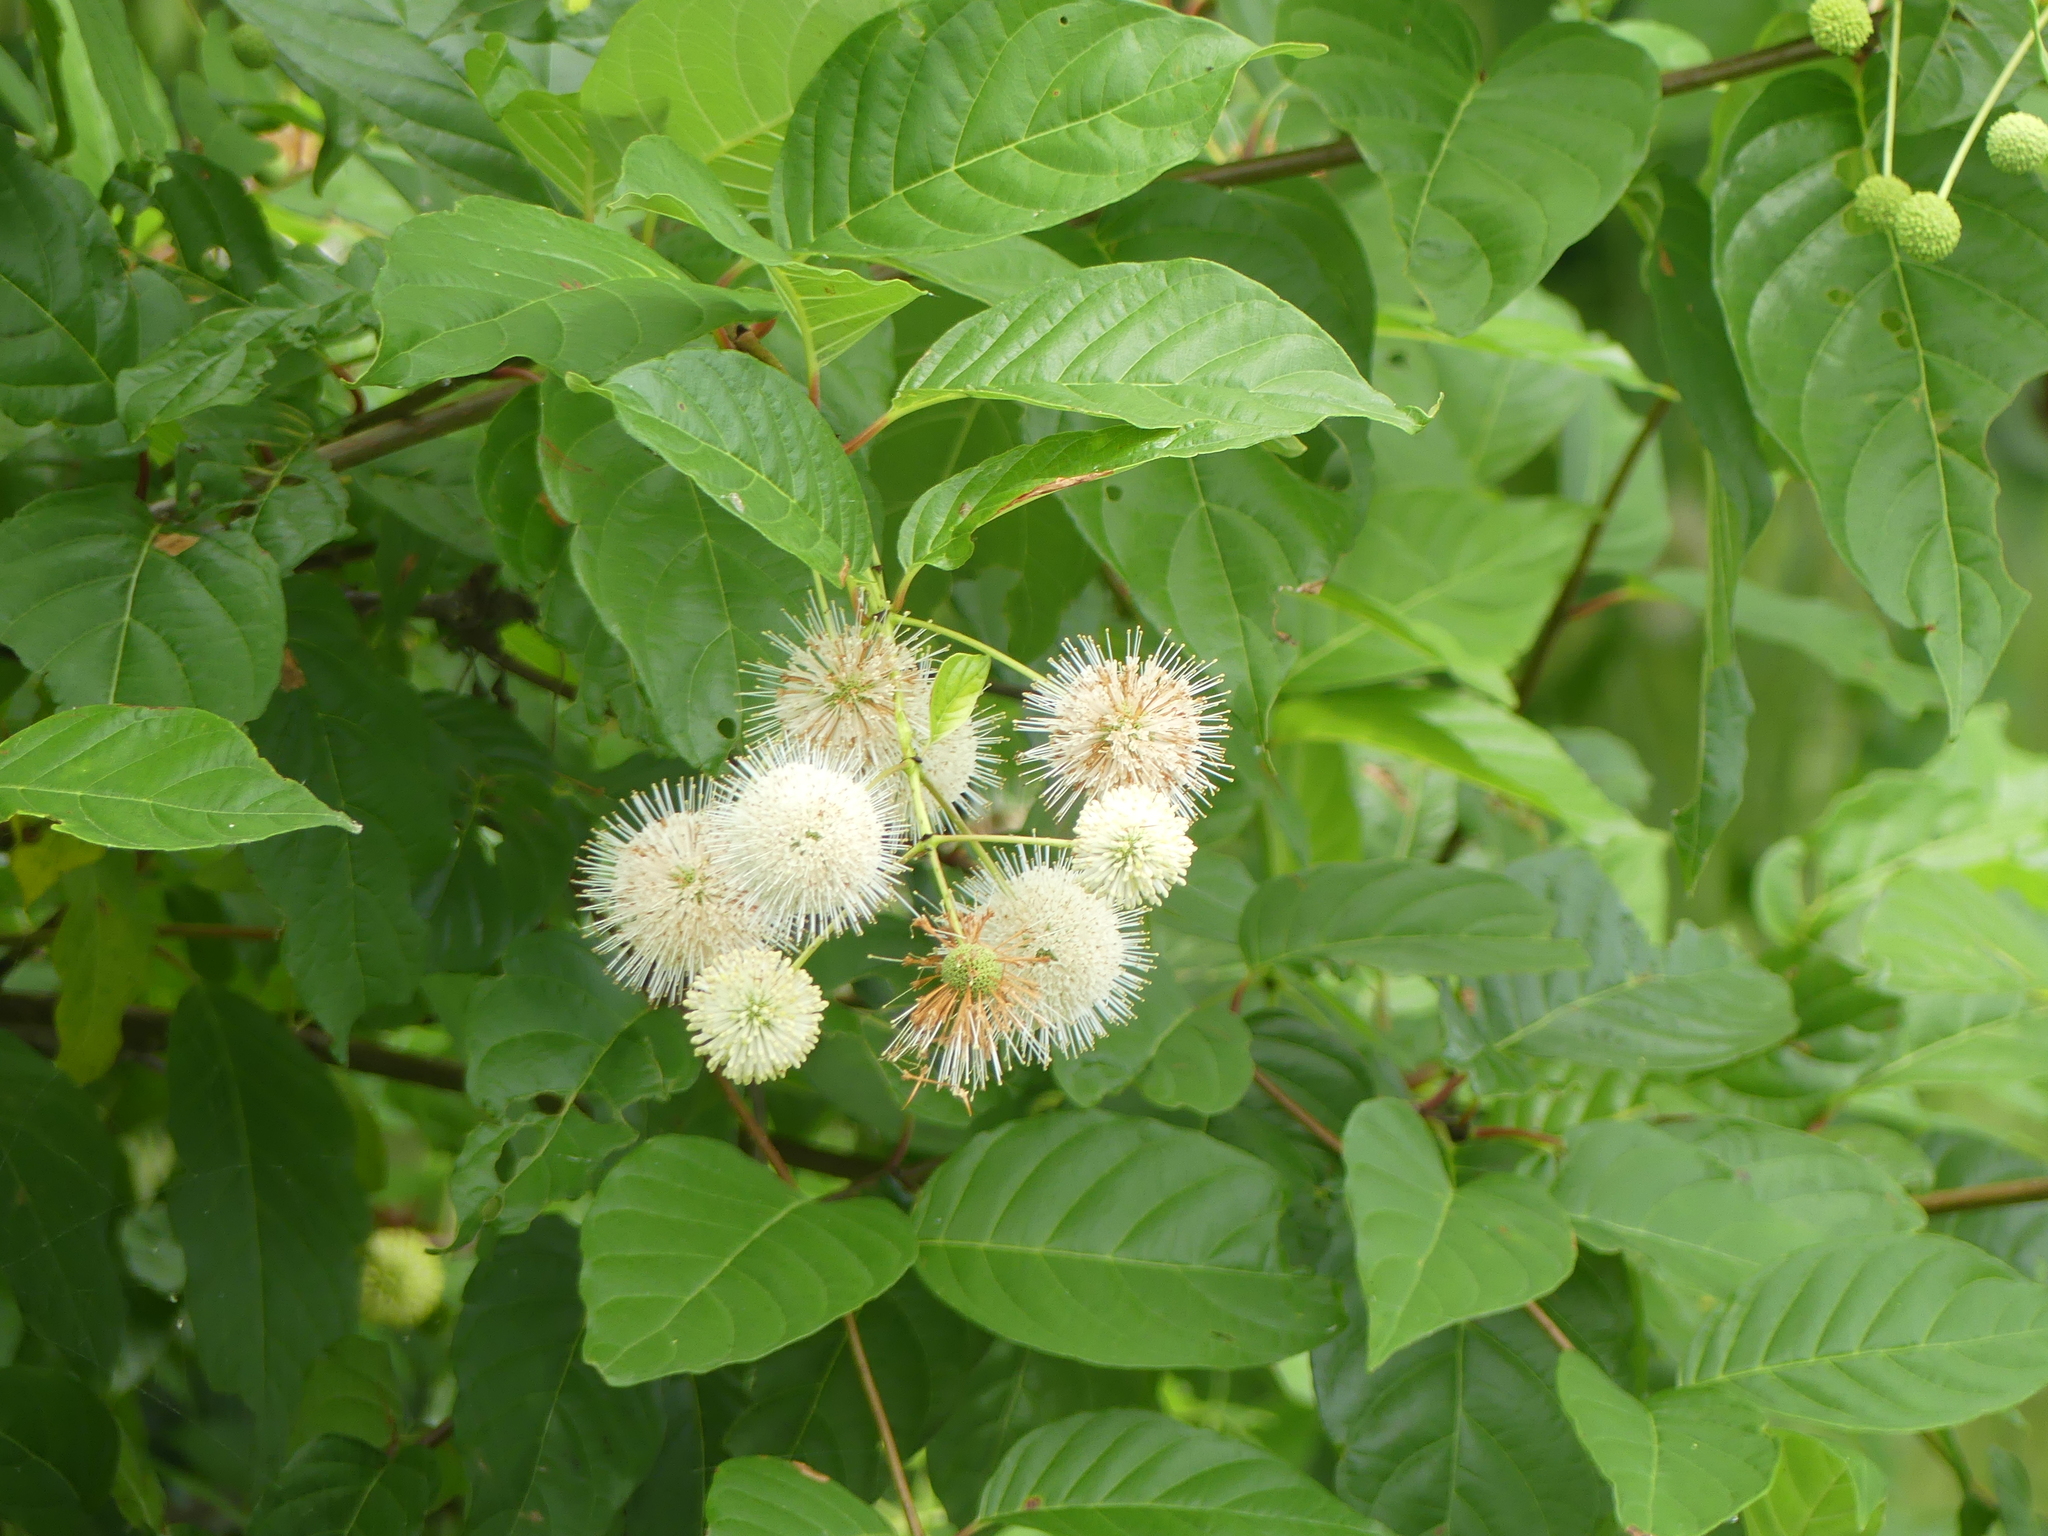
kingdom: Plantae
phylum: Tracheophyta
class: Magnoliopsida
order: Gentianales
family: Rubiaceae
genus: Cephalanthus
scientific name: Cephalanthus occidentalis
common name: Button-willow
